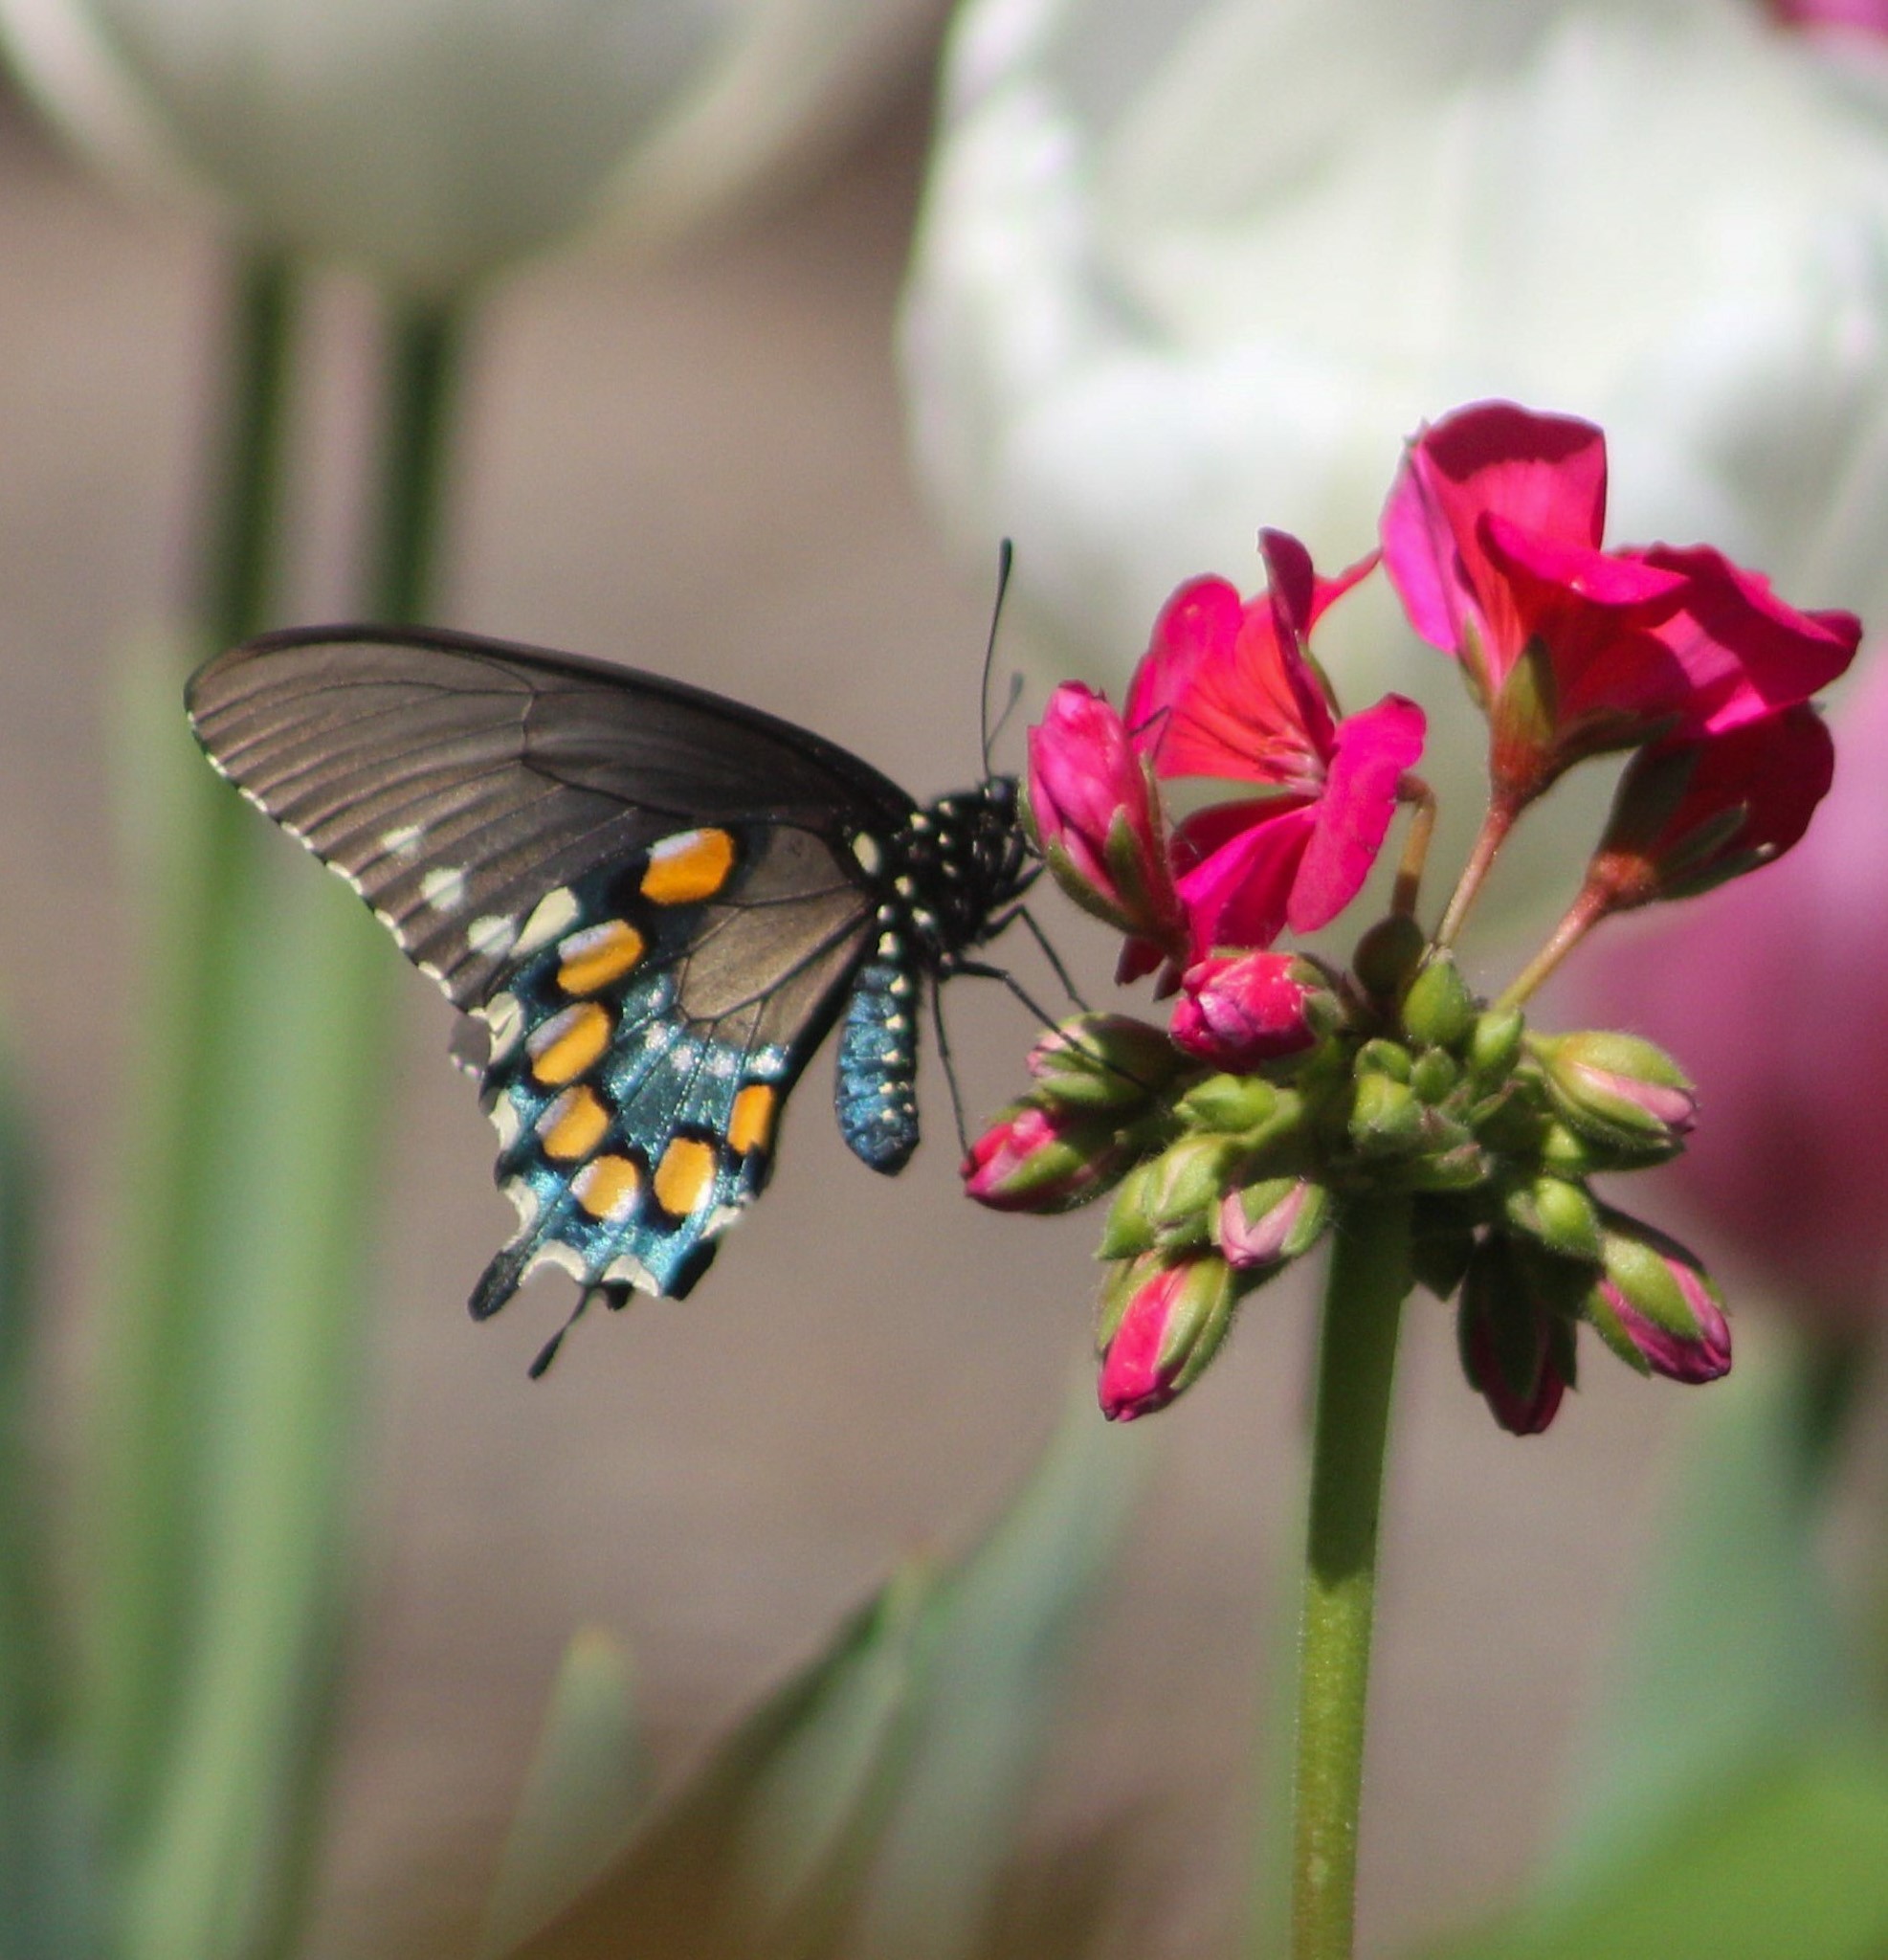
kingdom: Animalia
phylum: Arthropoda
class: Insecta
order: Lepidoptera
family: Papilionidae
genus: Battus
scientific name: Battus philenor
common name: Pipevine swallowtail
